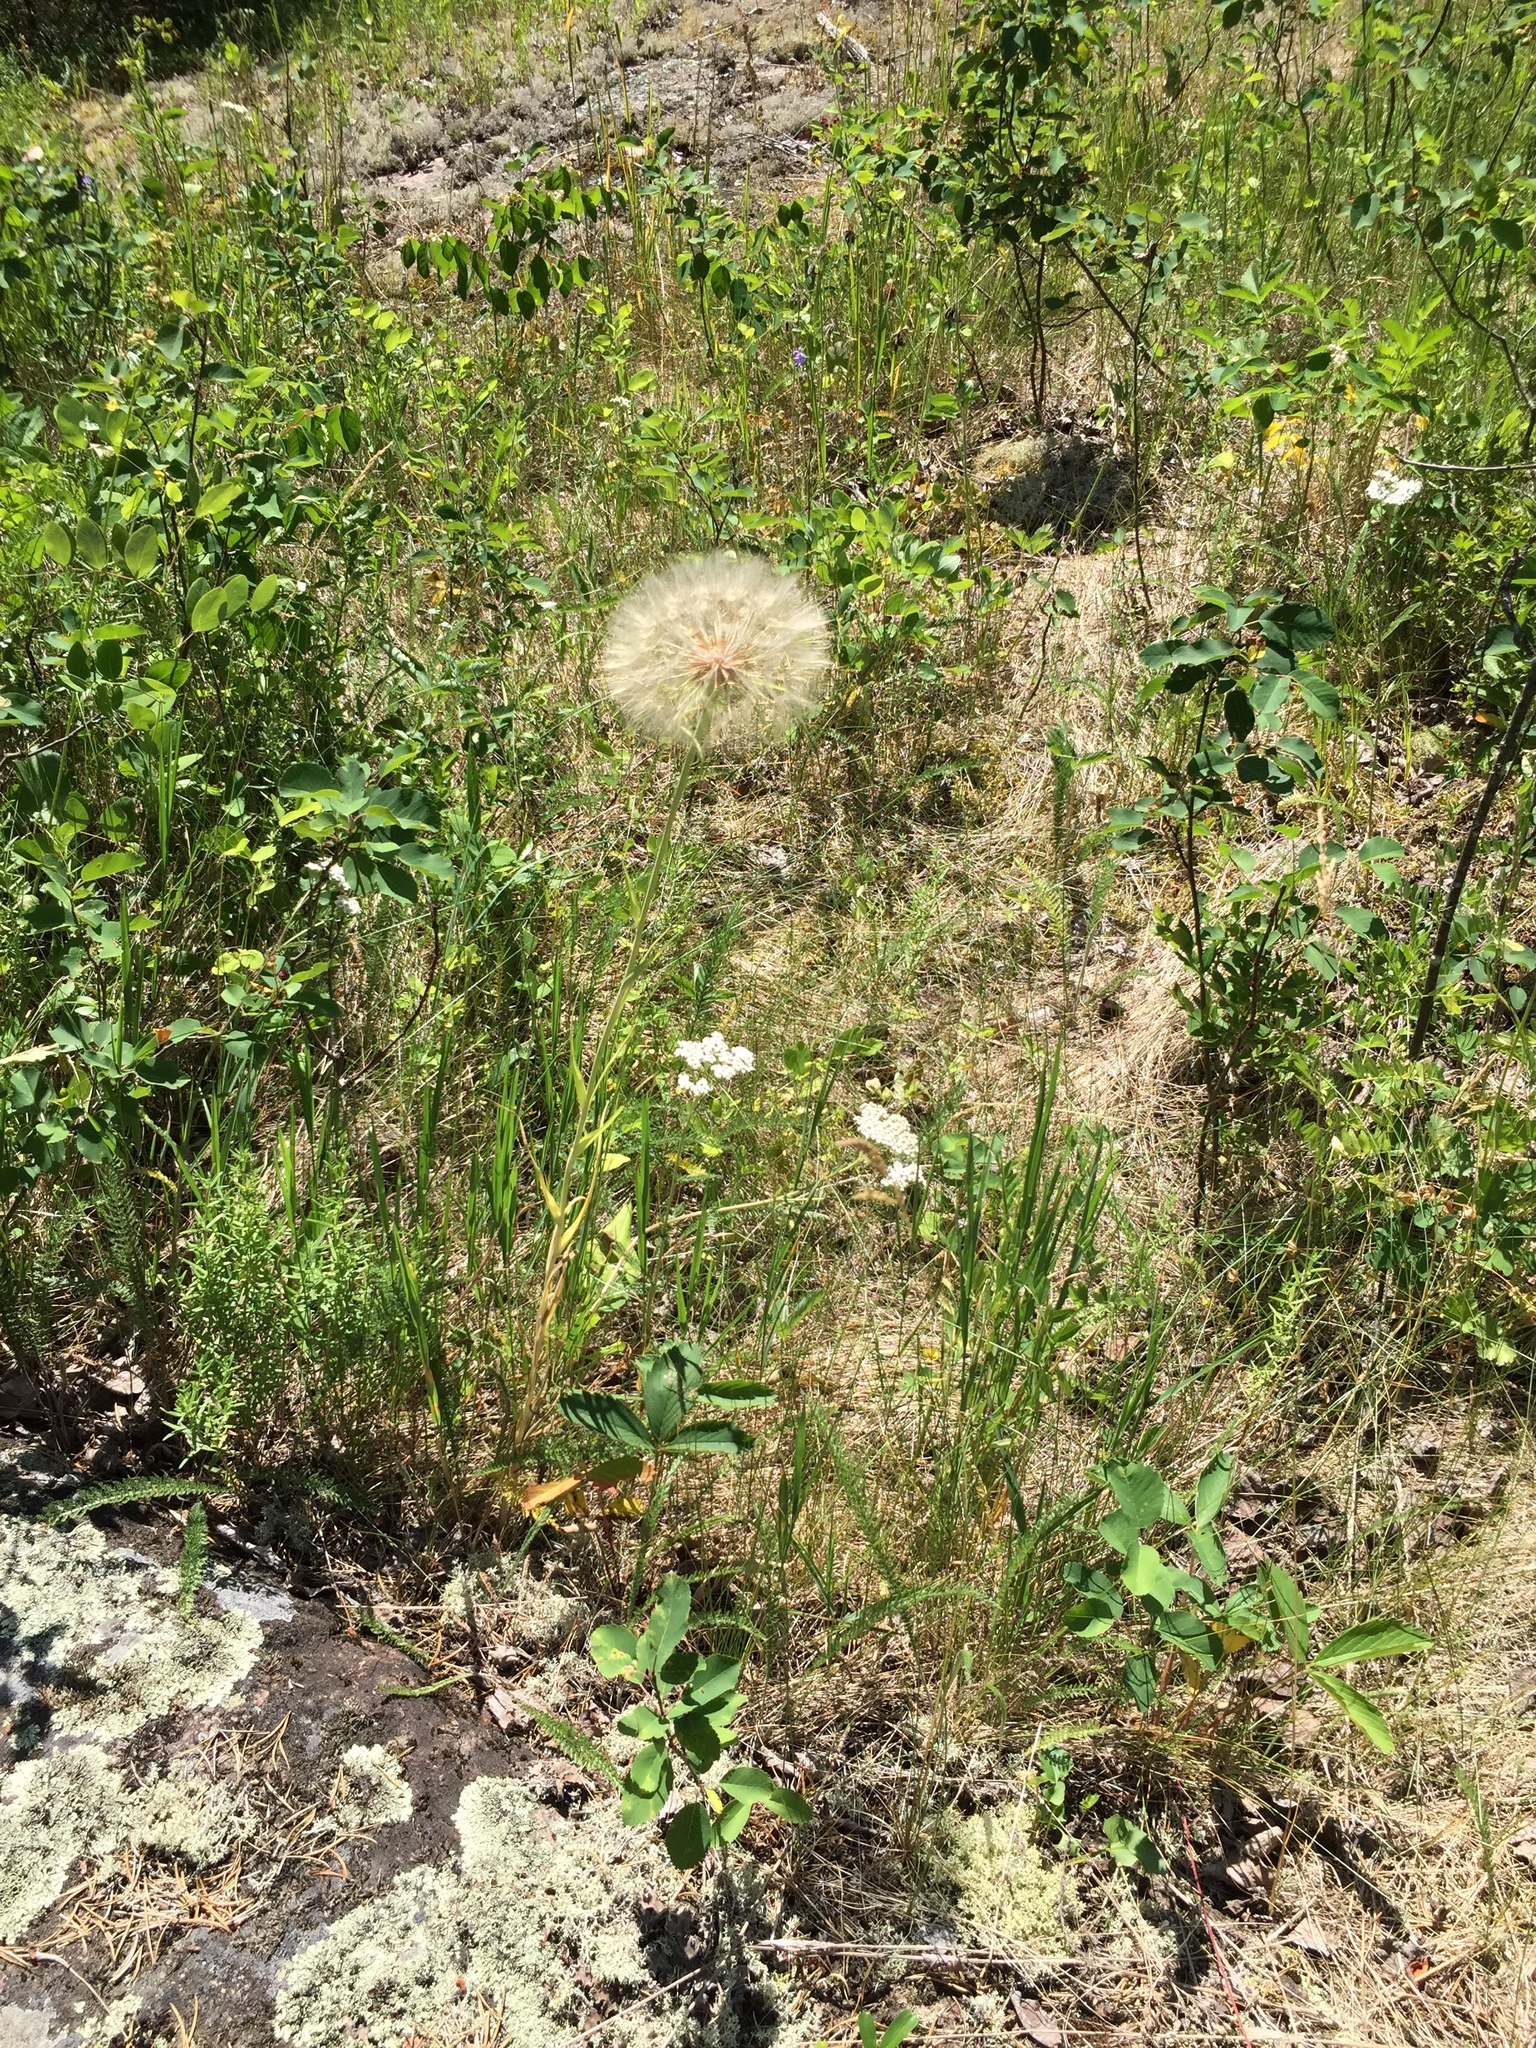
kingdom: Plantae
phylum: Tracheophyta
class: Magnoliopsida
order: Asterales
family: Asteraceae
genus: Tragopogon
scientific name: Tragopogon dubius
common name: Yellow salsify
